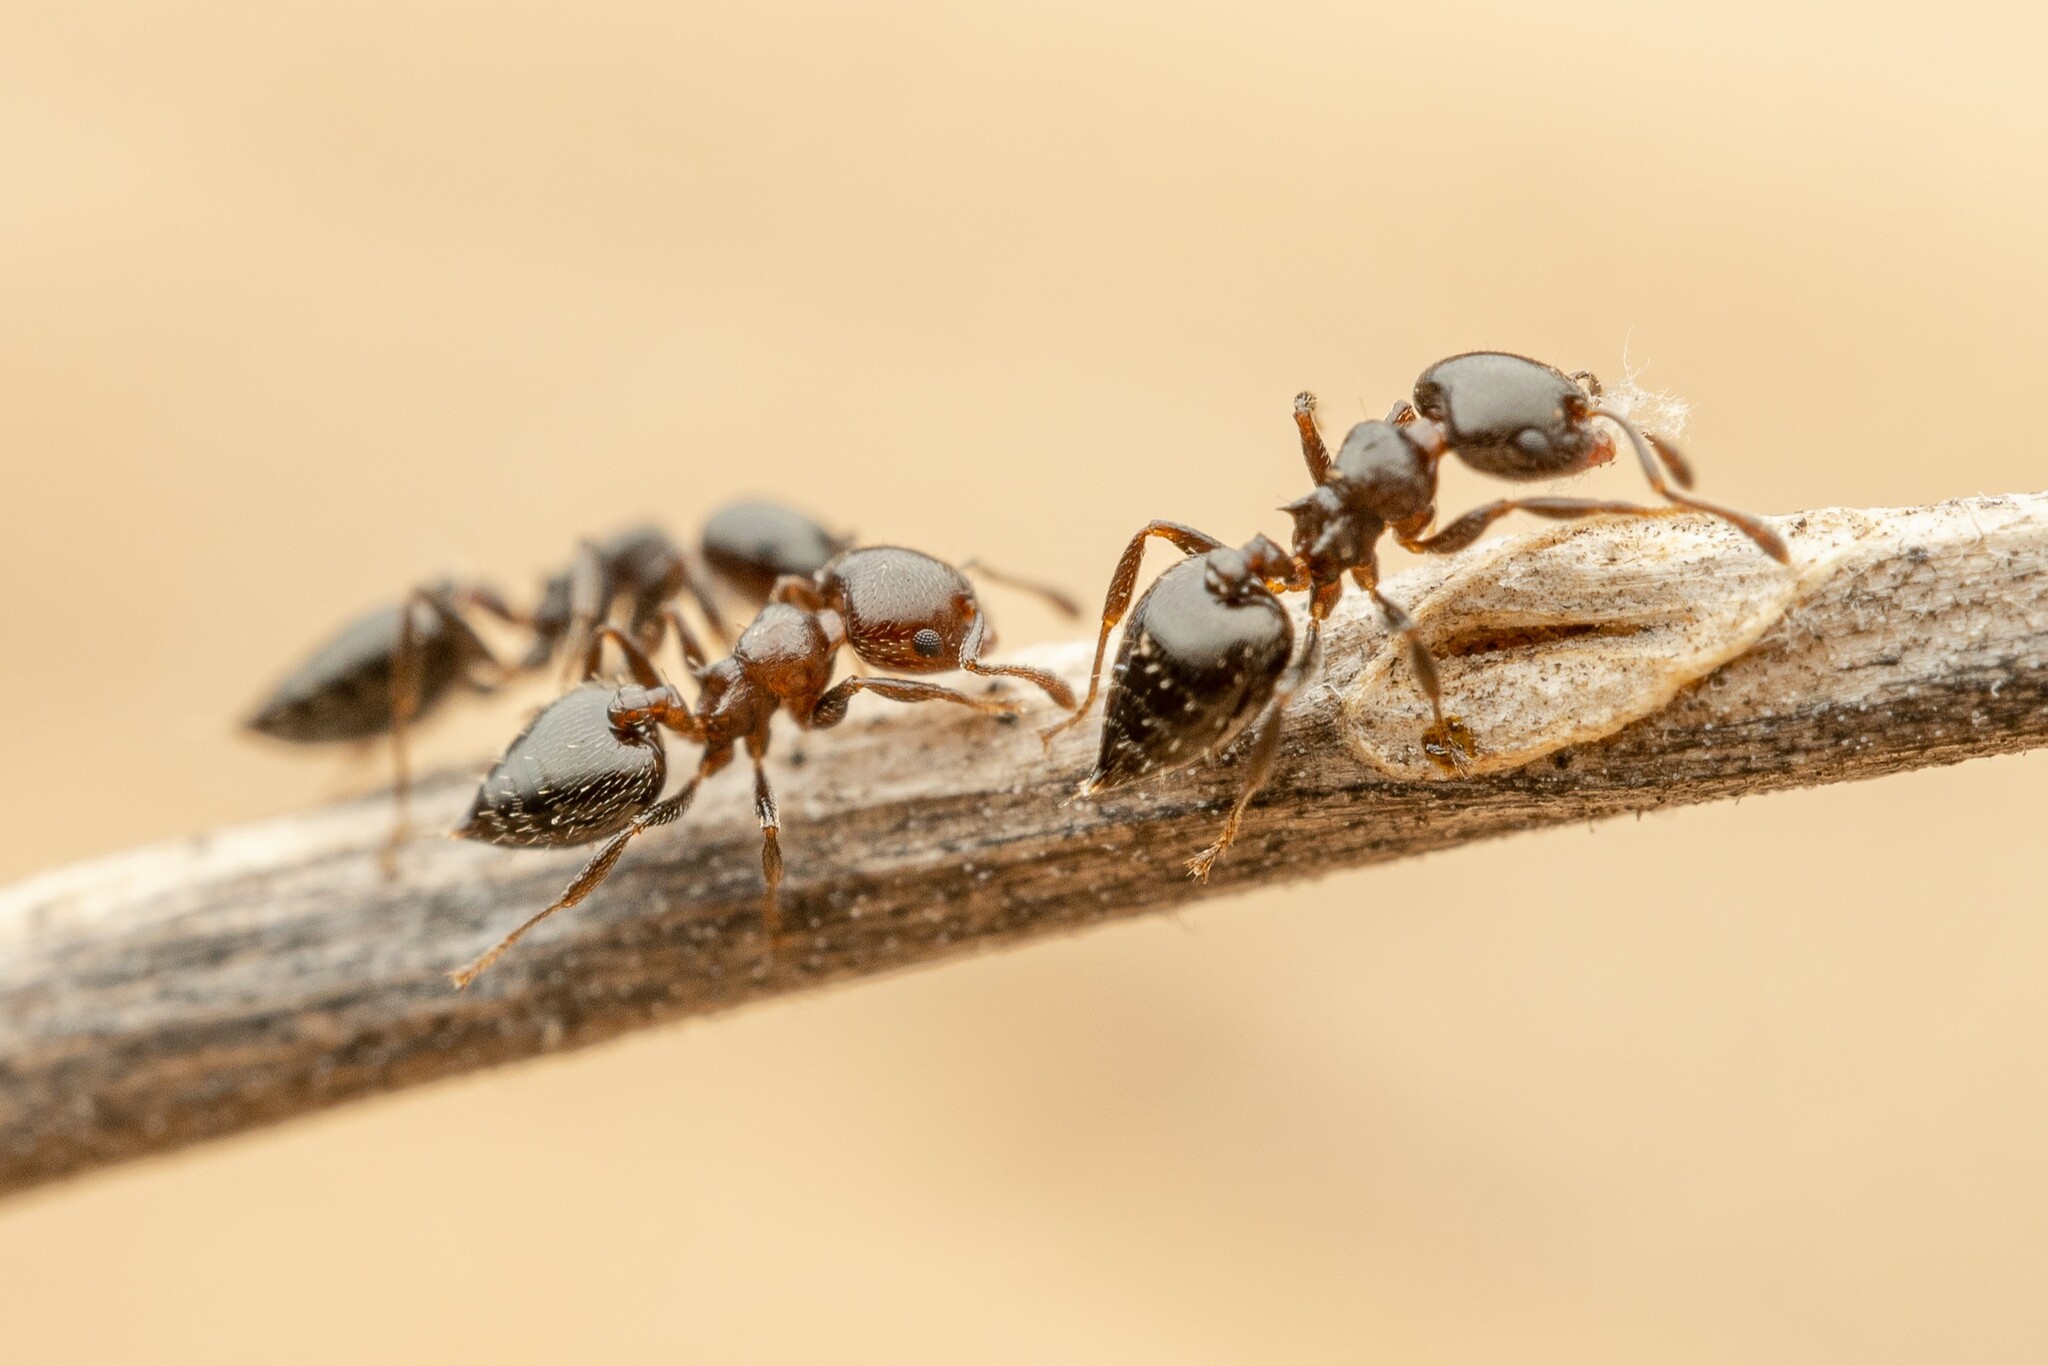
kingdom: Animalia
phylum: Arthropoda
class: Insecta
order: Hymenoptera
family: Formicidae
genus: Crematogaster
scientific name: Crematogaster torosa
